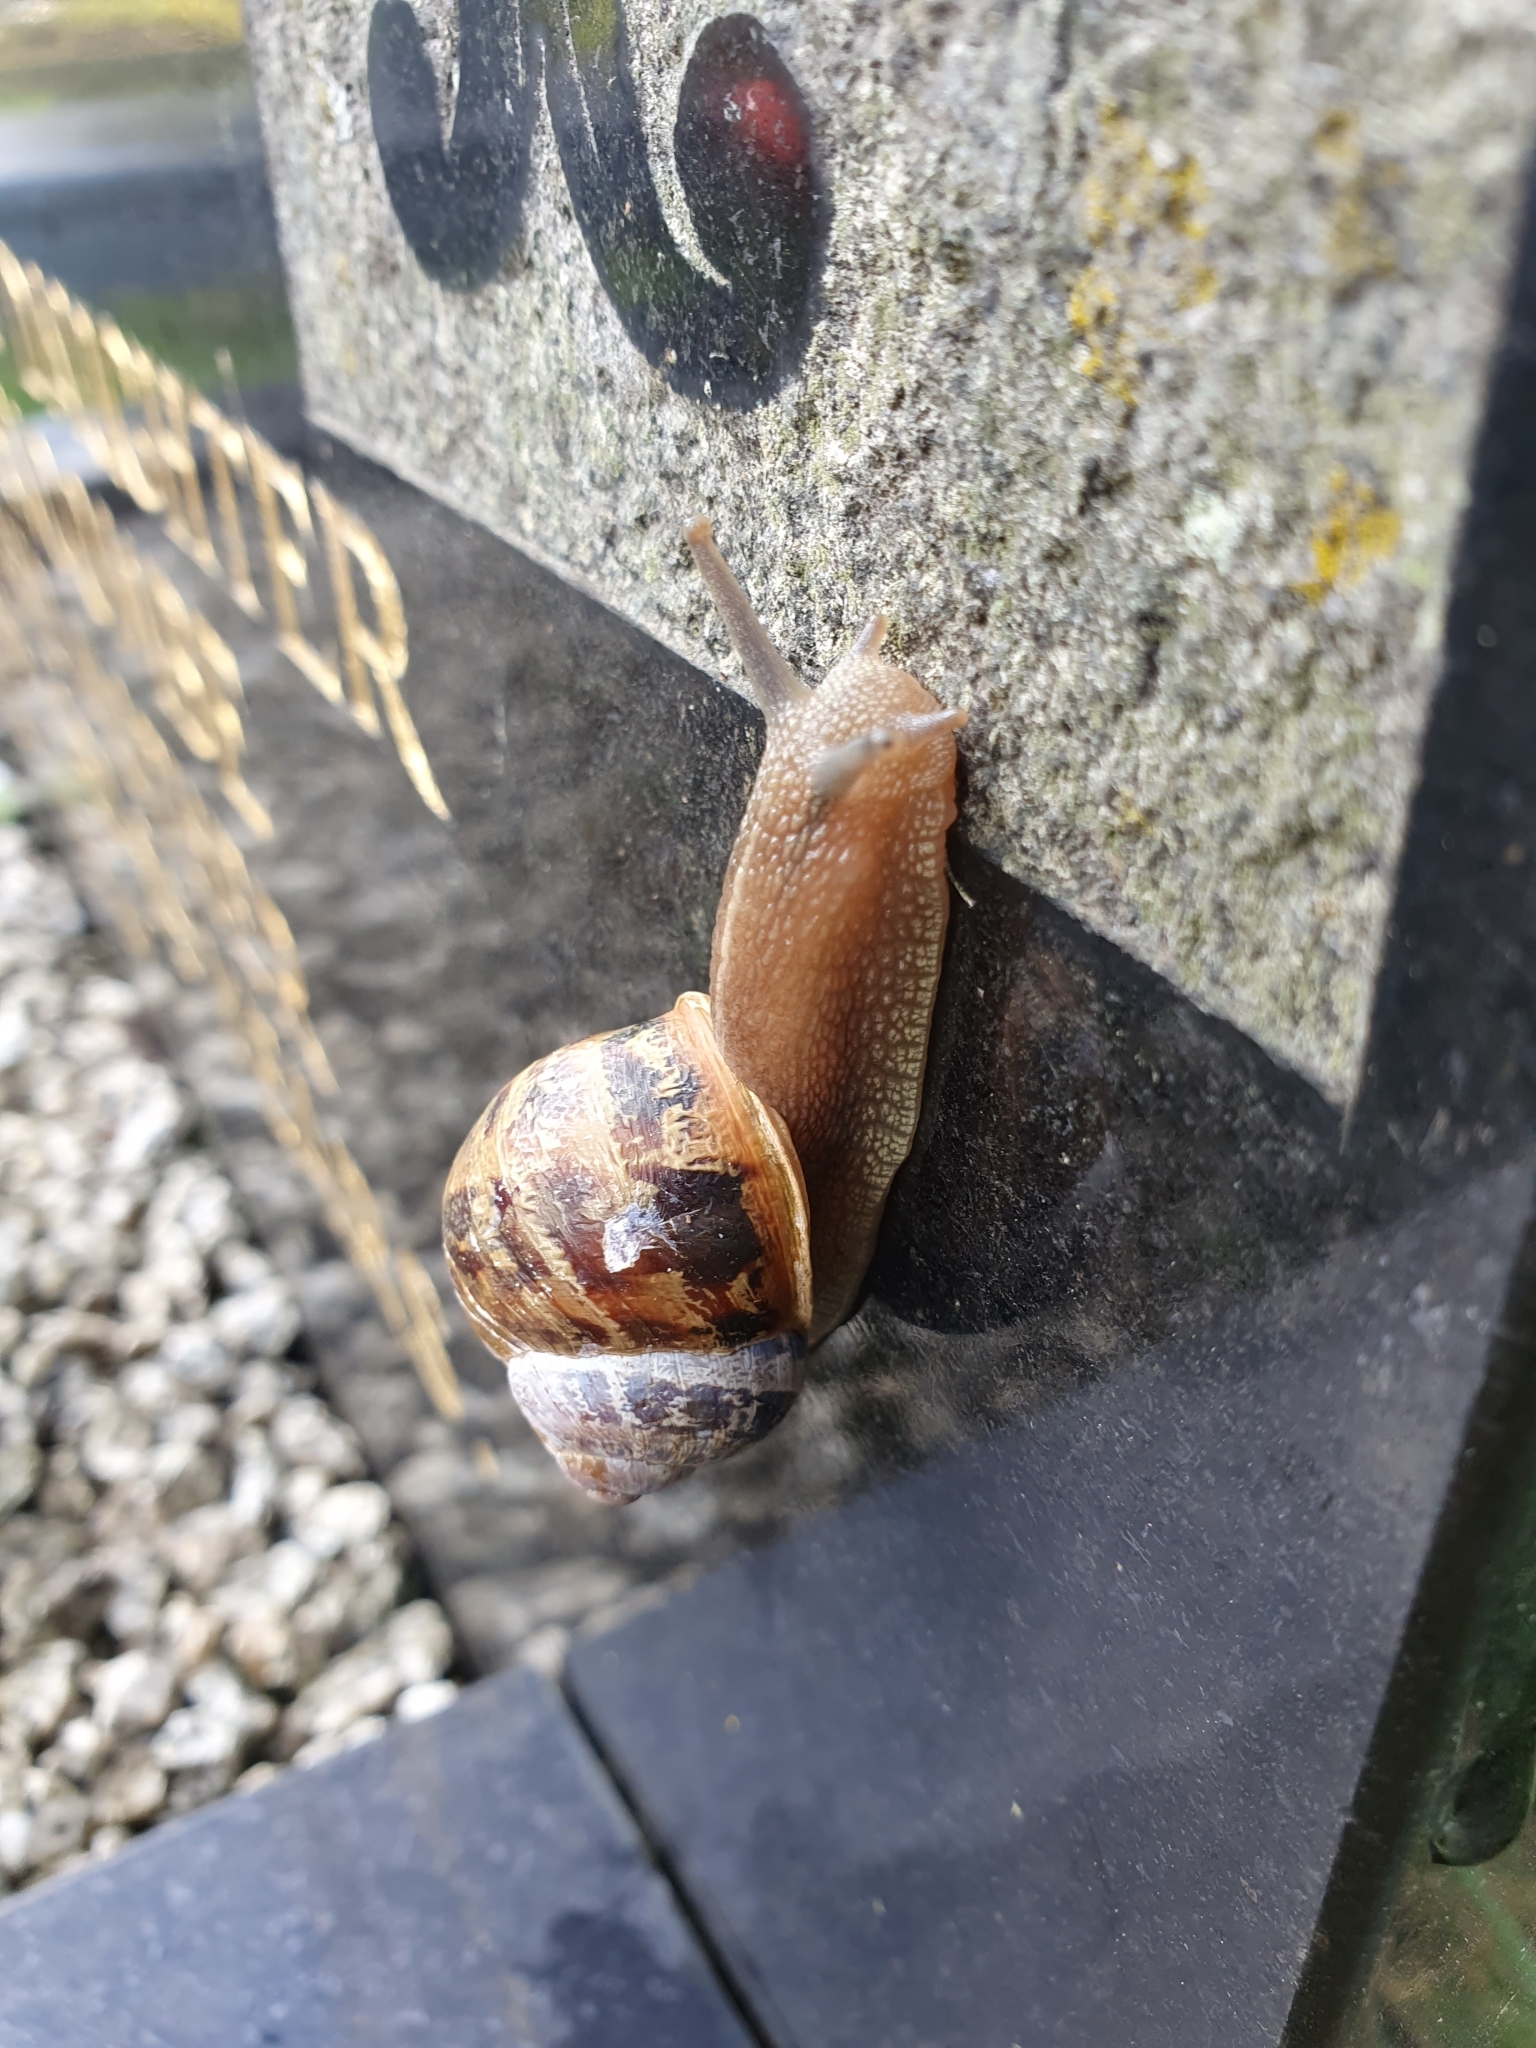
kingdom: Animalia
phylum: Mollusca
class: Gastropoda
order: Stylommatophora
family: Helicidae
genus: Cornu
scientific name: Cornu aspersum
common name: Brown garden snail
